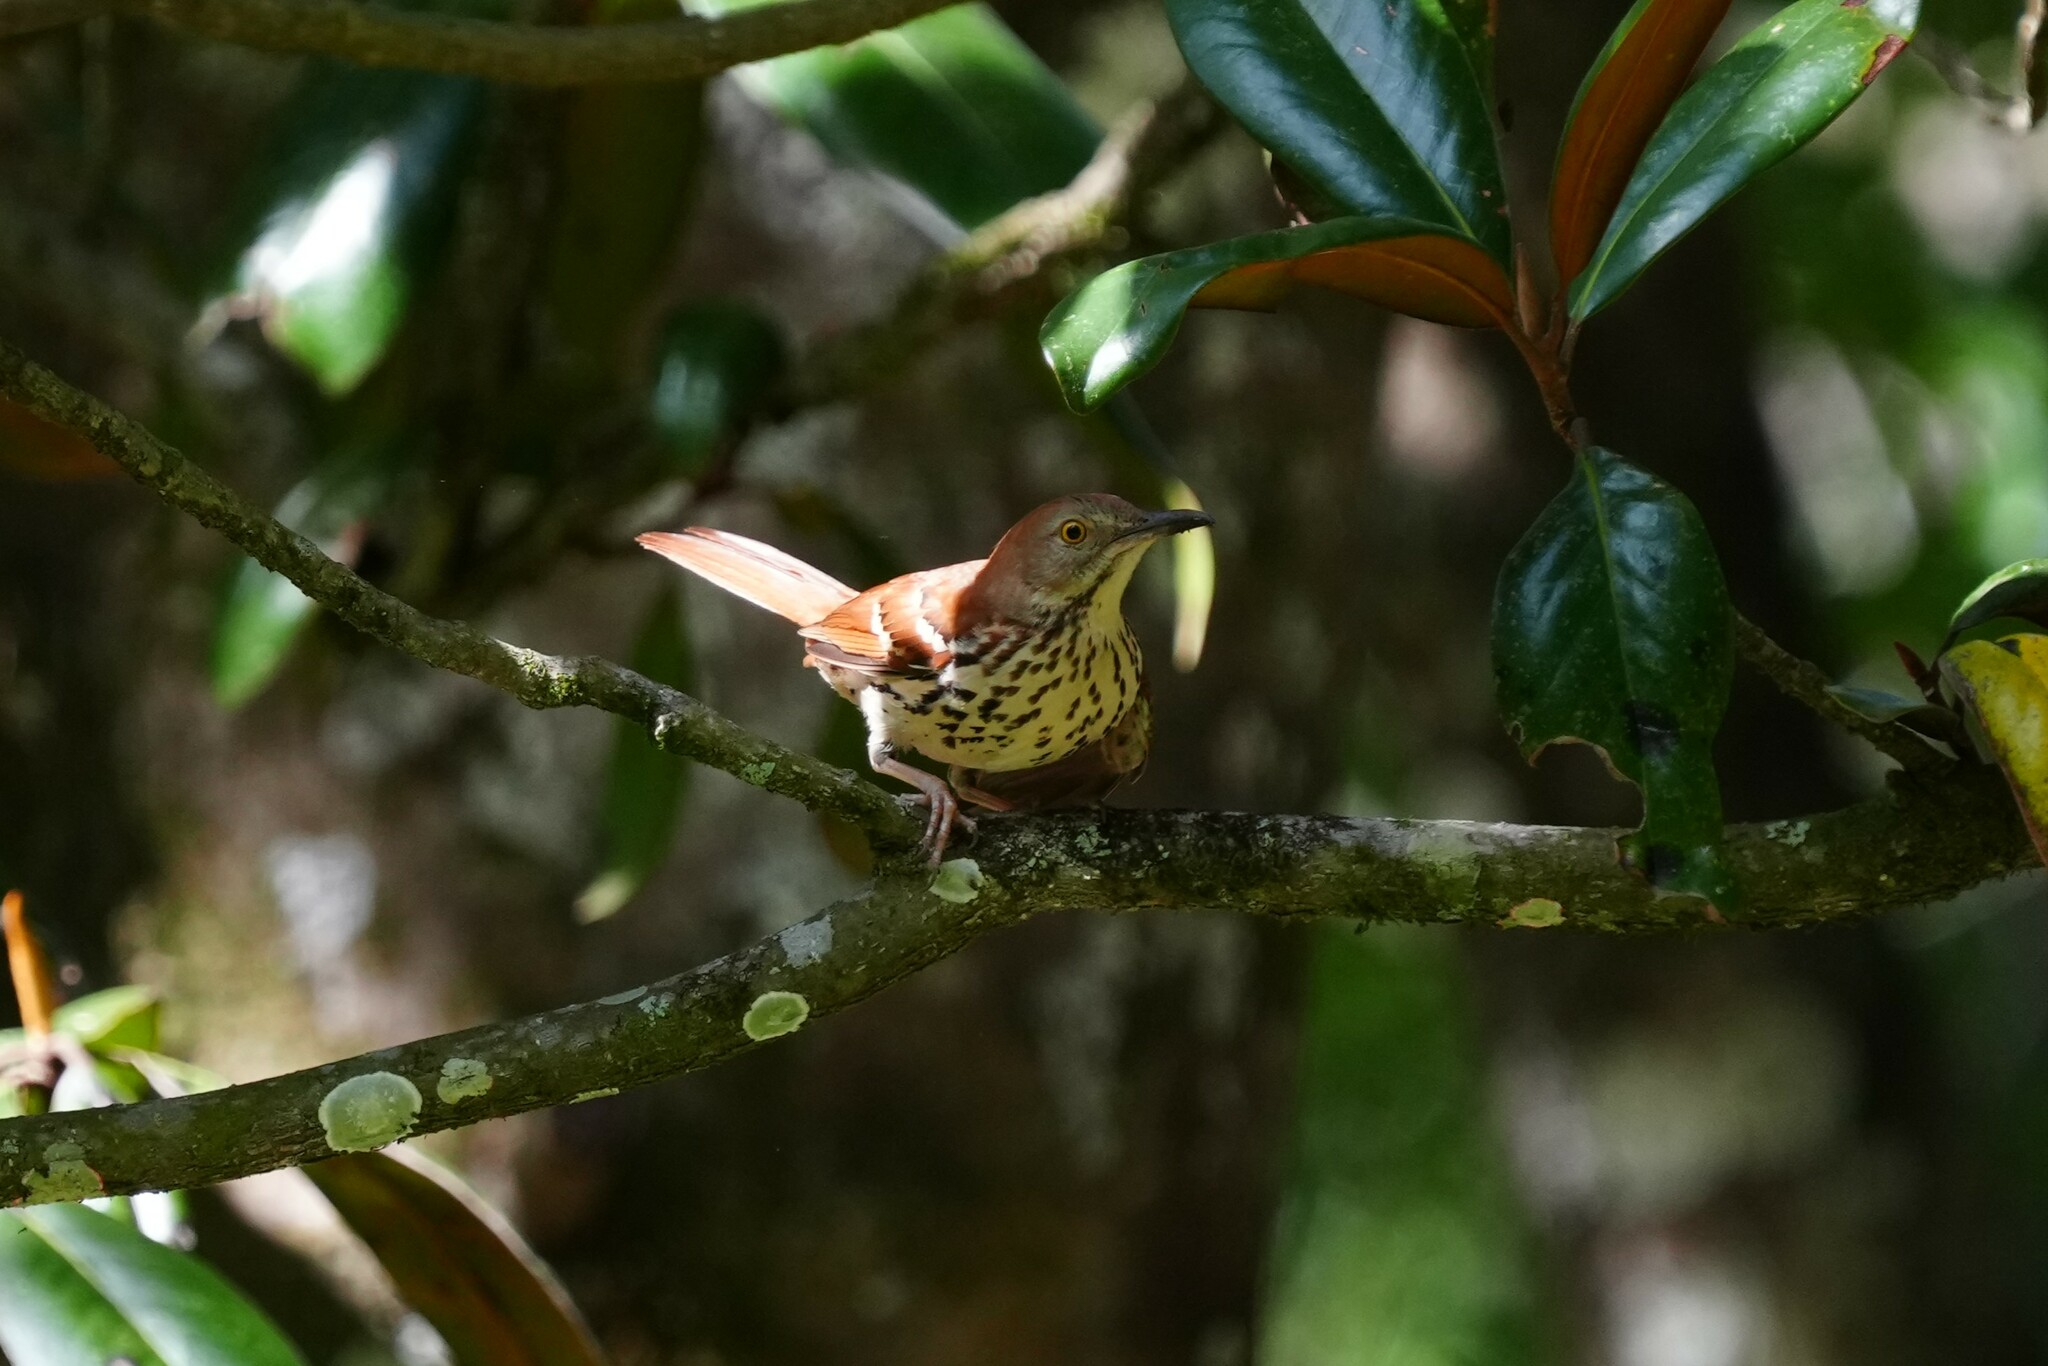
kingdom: Animalia
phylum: Chordata
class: Aves
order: Passeriformes
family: Mimidae
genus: Toxostoma
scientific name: Toxostoma rufum
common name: Brown thrasher
